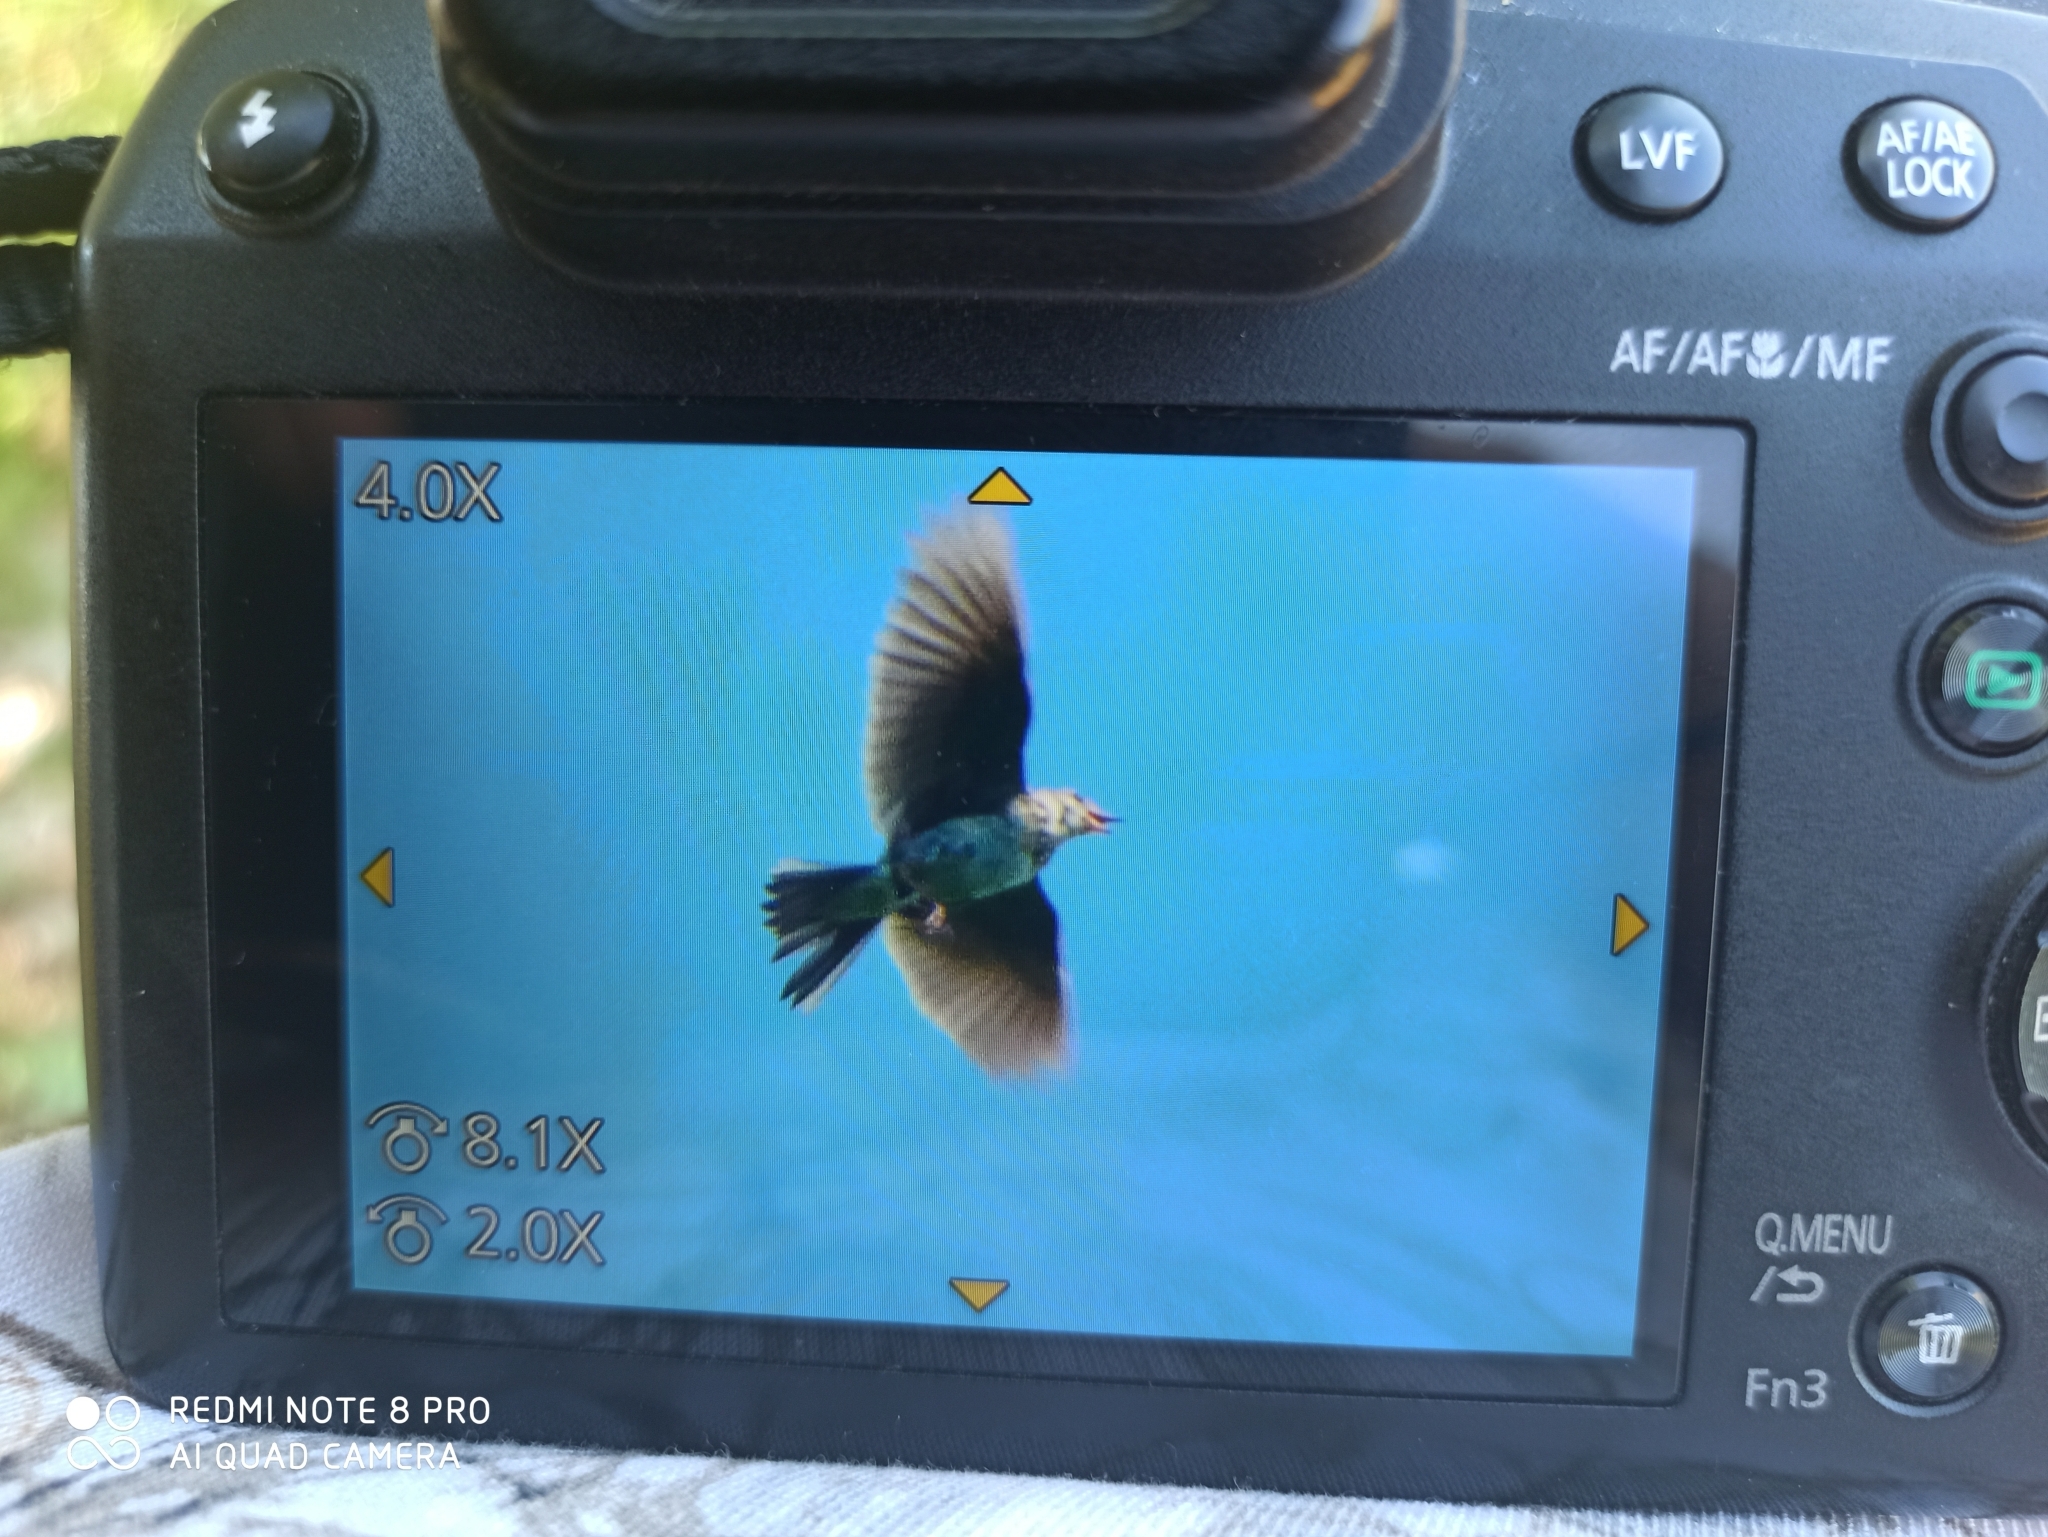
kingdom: Animalia
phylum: Chordata
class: Aves
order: Passeriformes
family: Alaudidae
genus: Alauda
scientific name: Alauda arvensis
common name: Eurasian skylark
